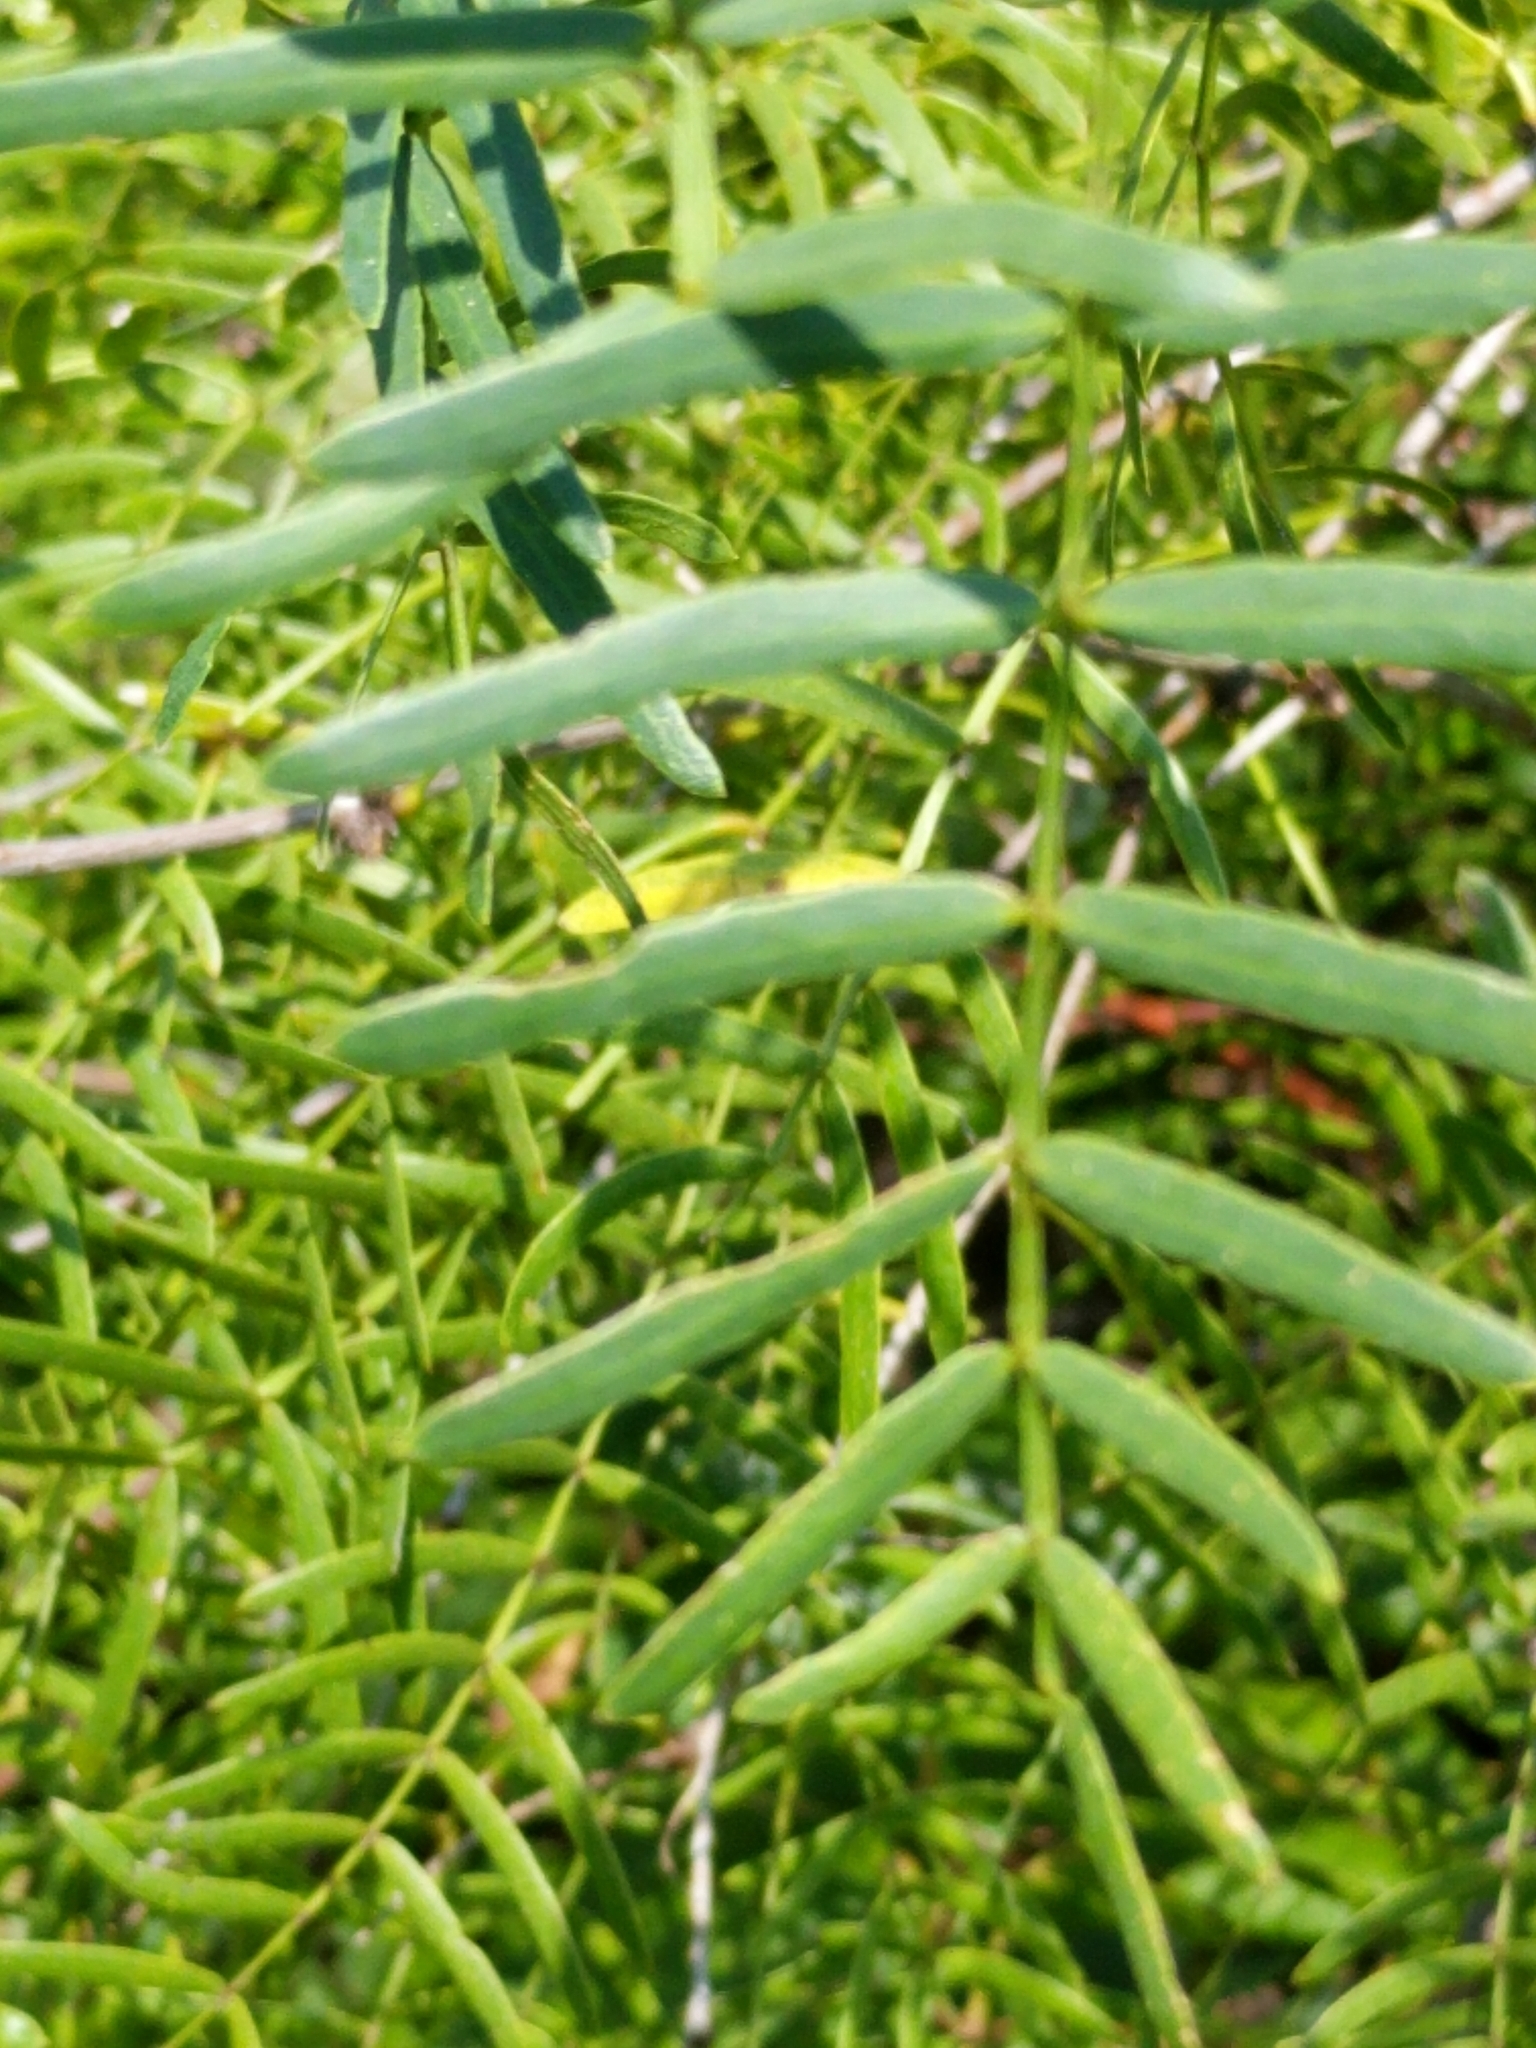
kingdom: Plantae
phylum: Tracheophyta
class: Magnoliopsida
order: Fabales
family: Fabaceae
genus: Prosopis
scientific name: Prosopis glandulosa
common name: Honey mesquite
